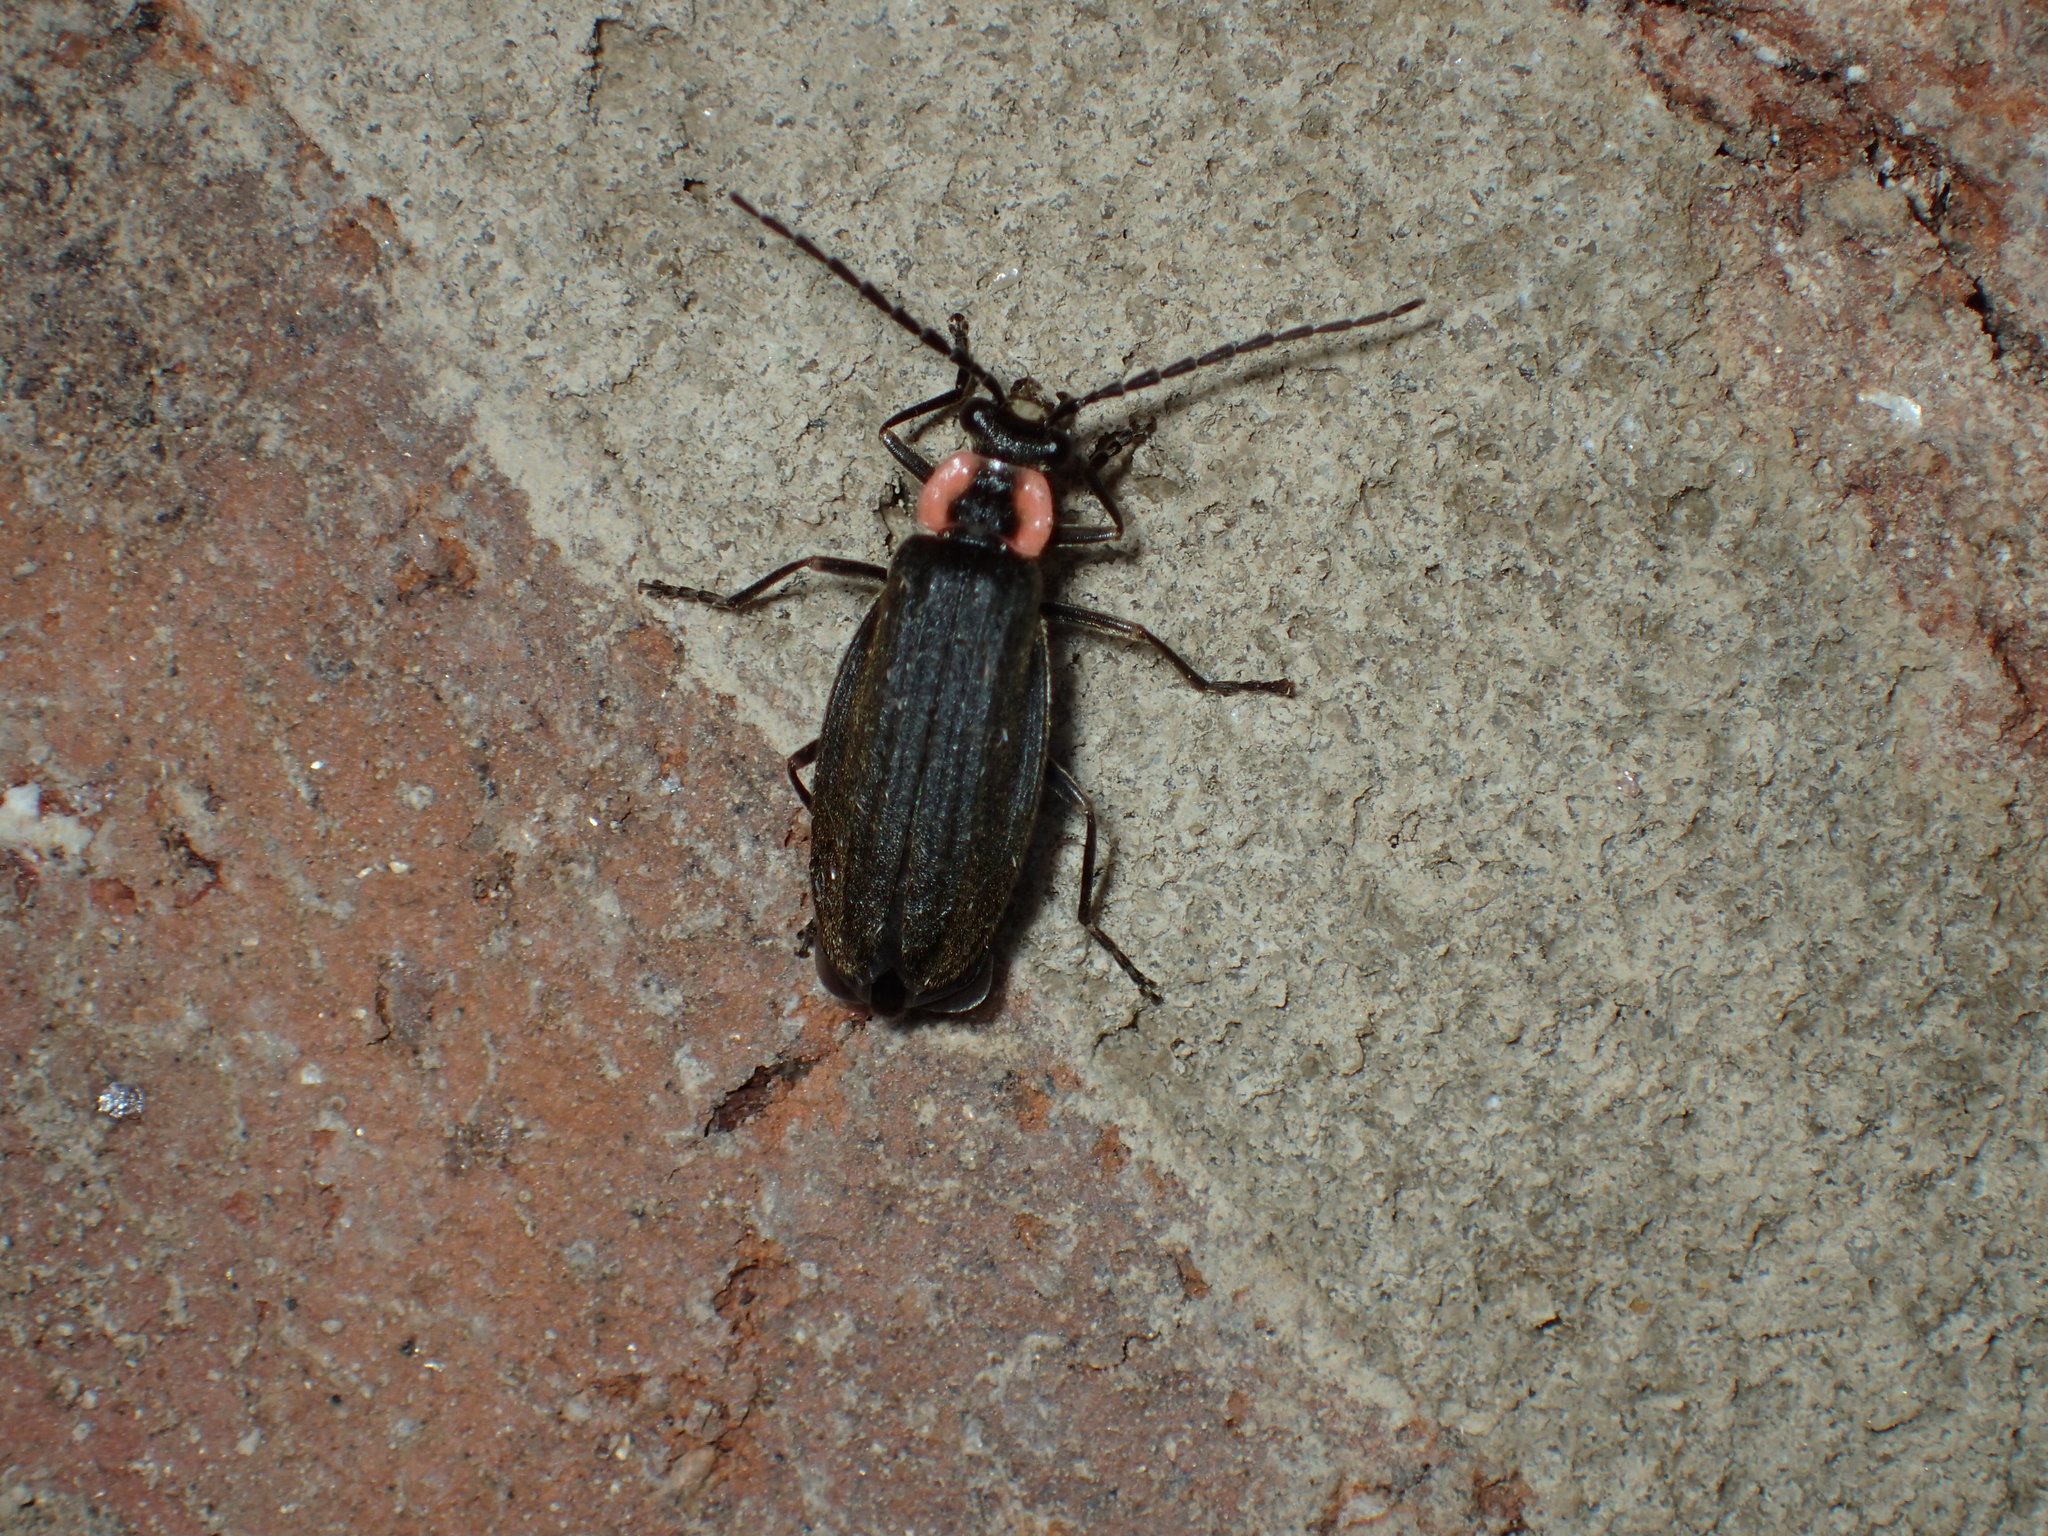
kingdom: Animalia
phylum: Arthropoda
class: Insecta
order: Coleoptera
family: Cantharidae
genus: Podabrus
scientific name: Podabrus tricostatus
